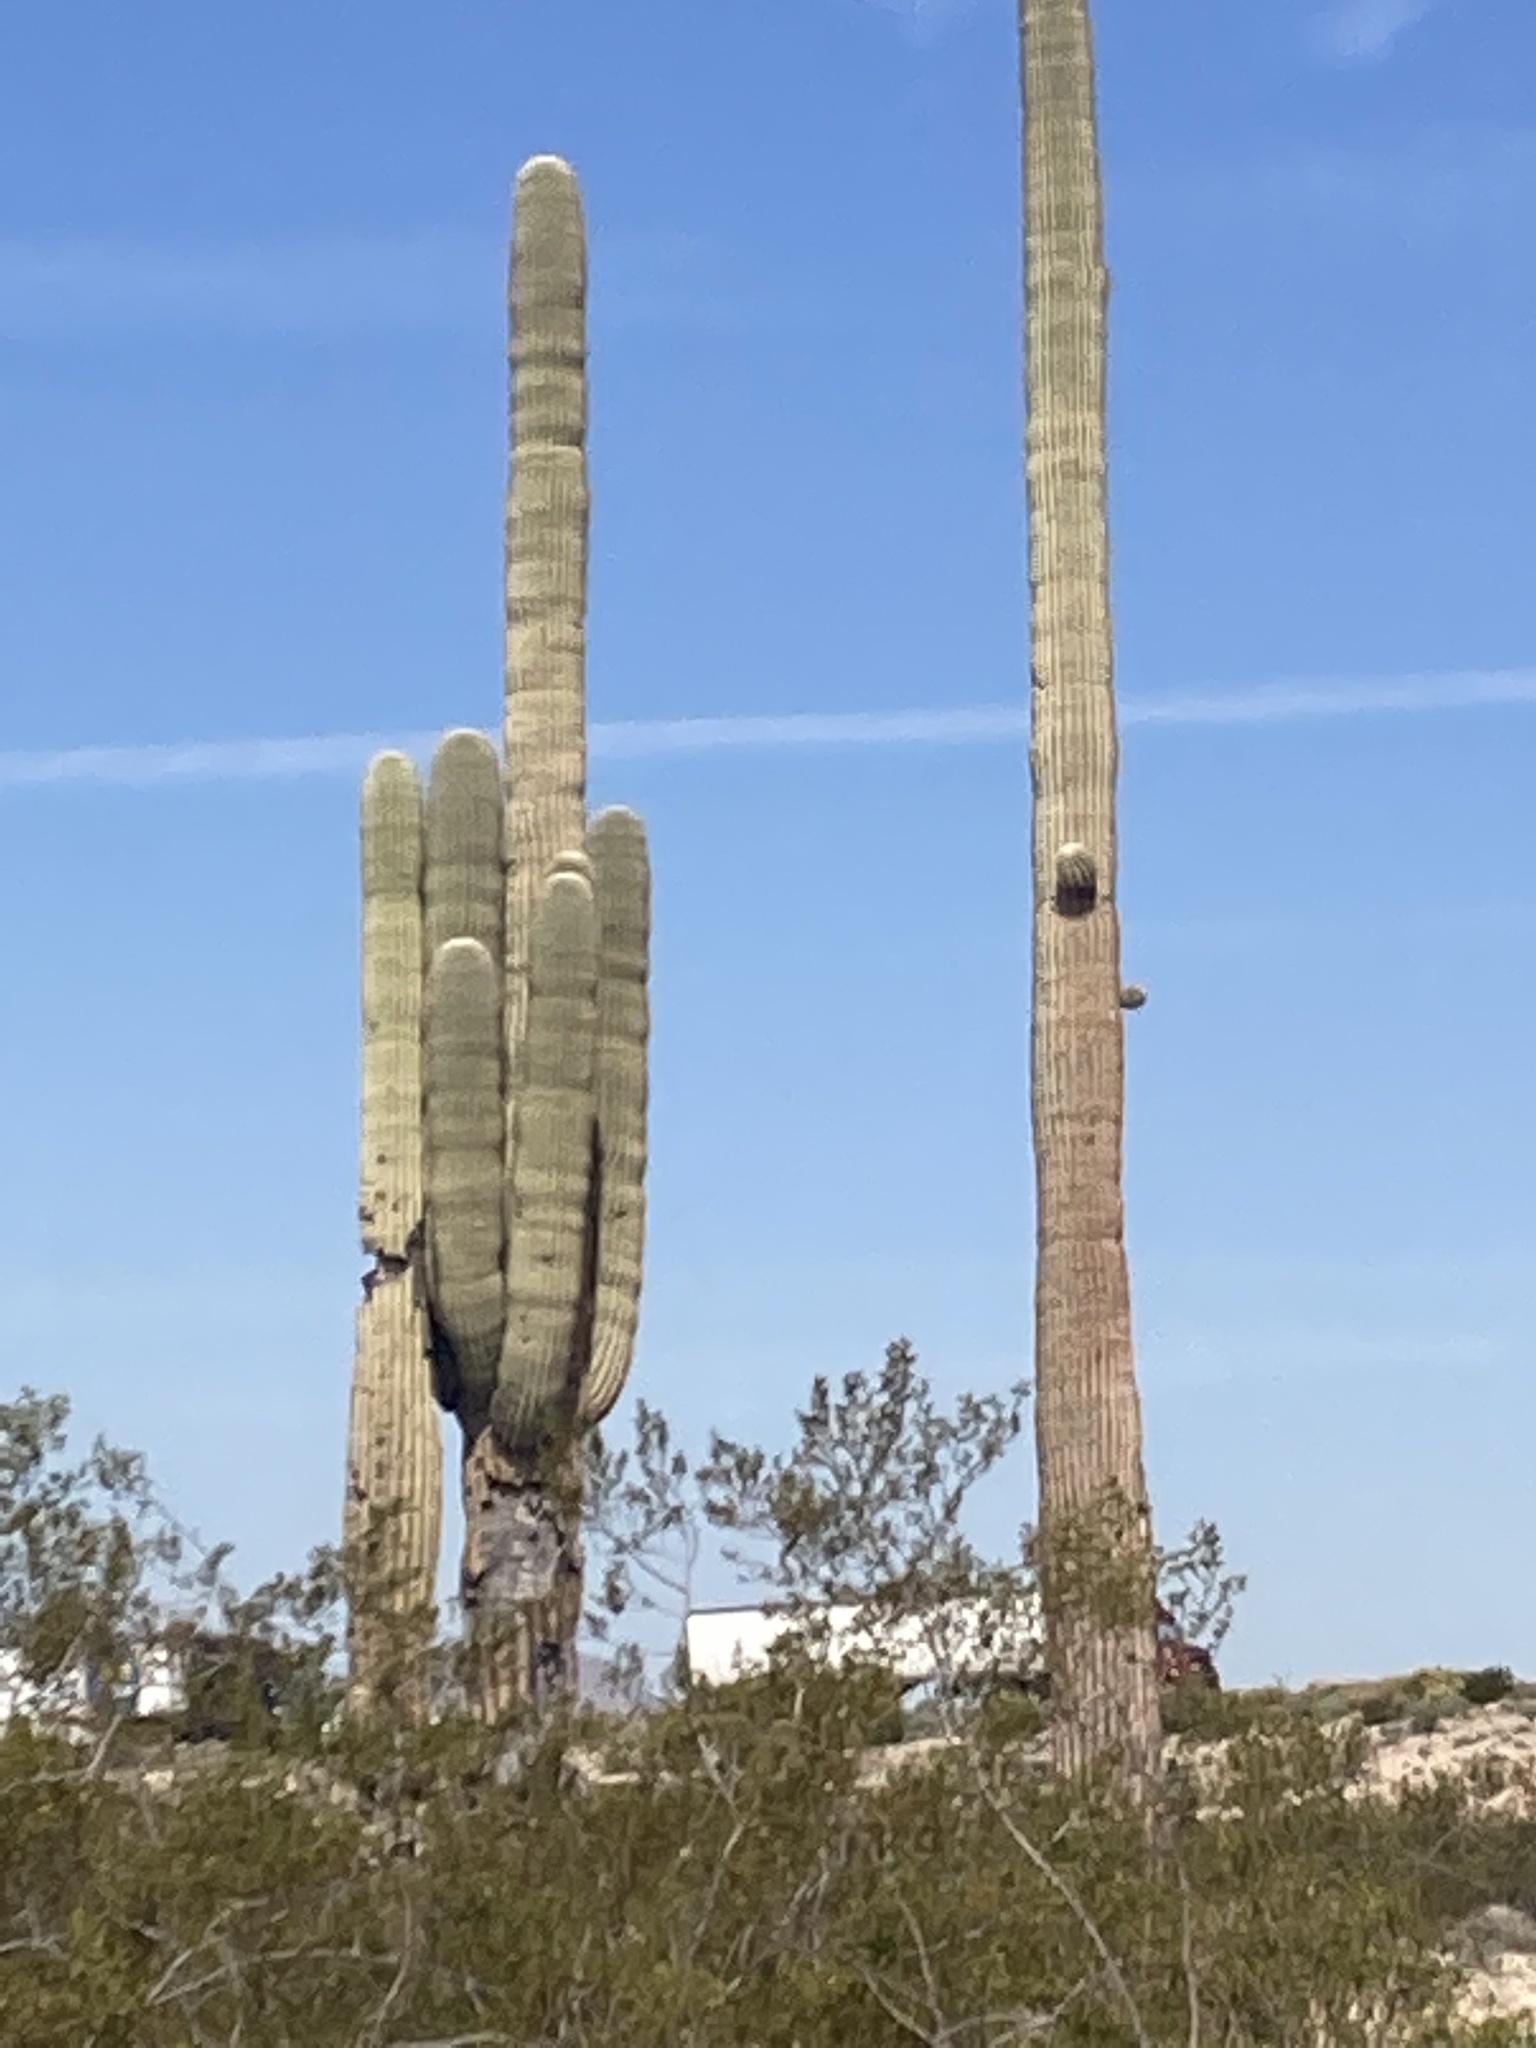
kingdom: Plantae
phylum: Tracheophyta
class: Magnoliopsida
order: Caryophyllales
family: Cactaceae
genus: Carnegiea
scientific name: Carnegiea gigantea
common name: Saguaro
